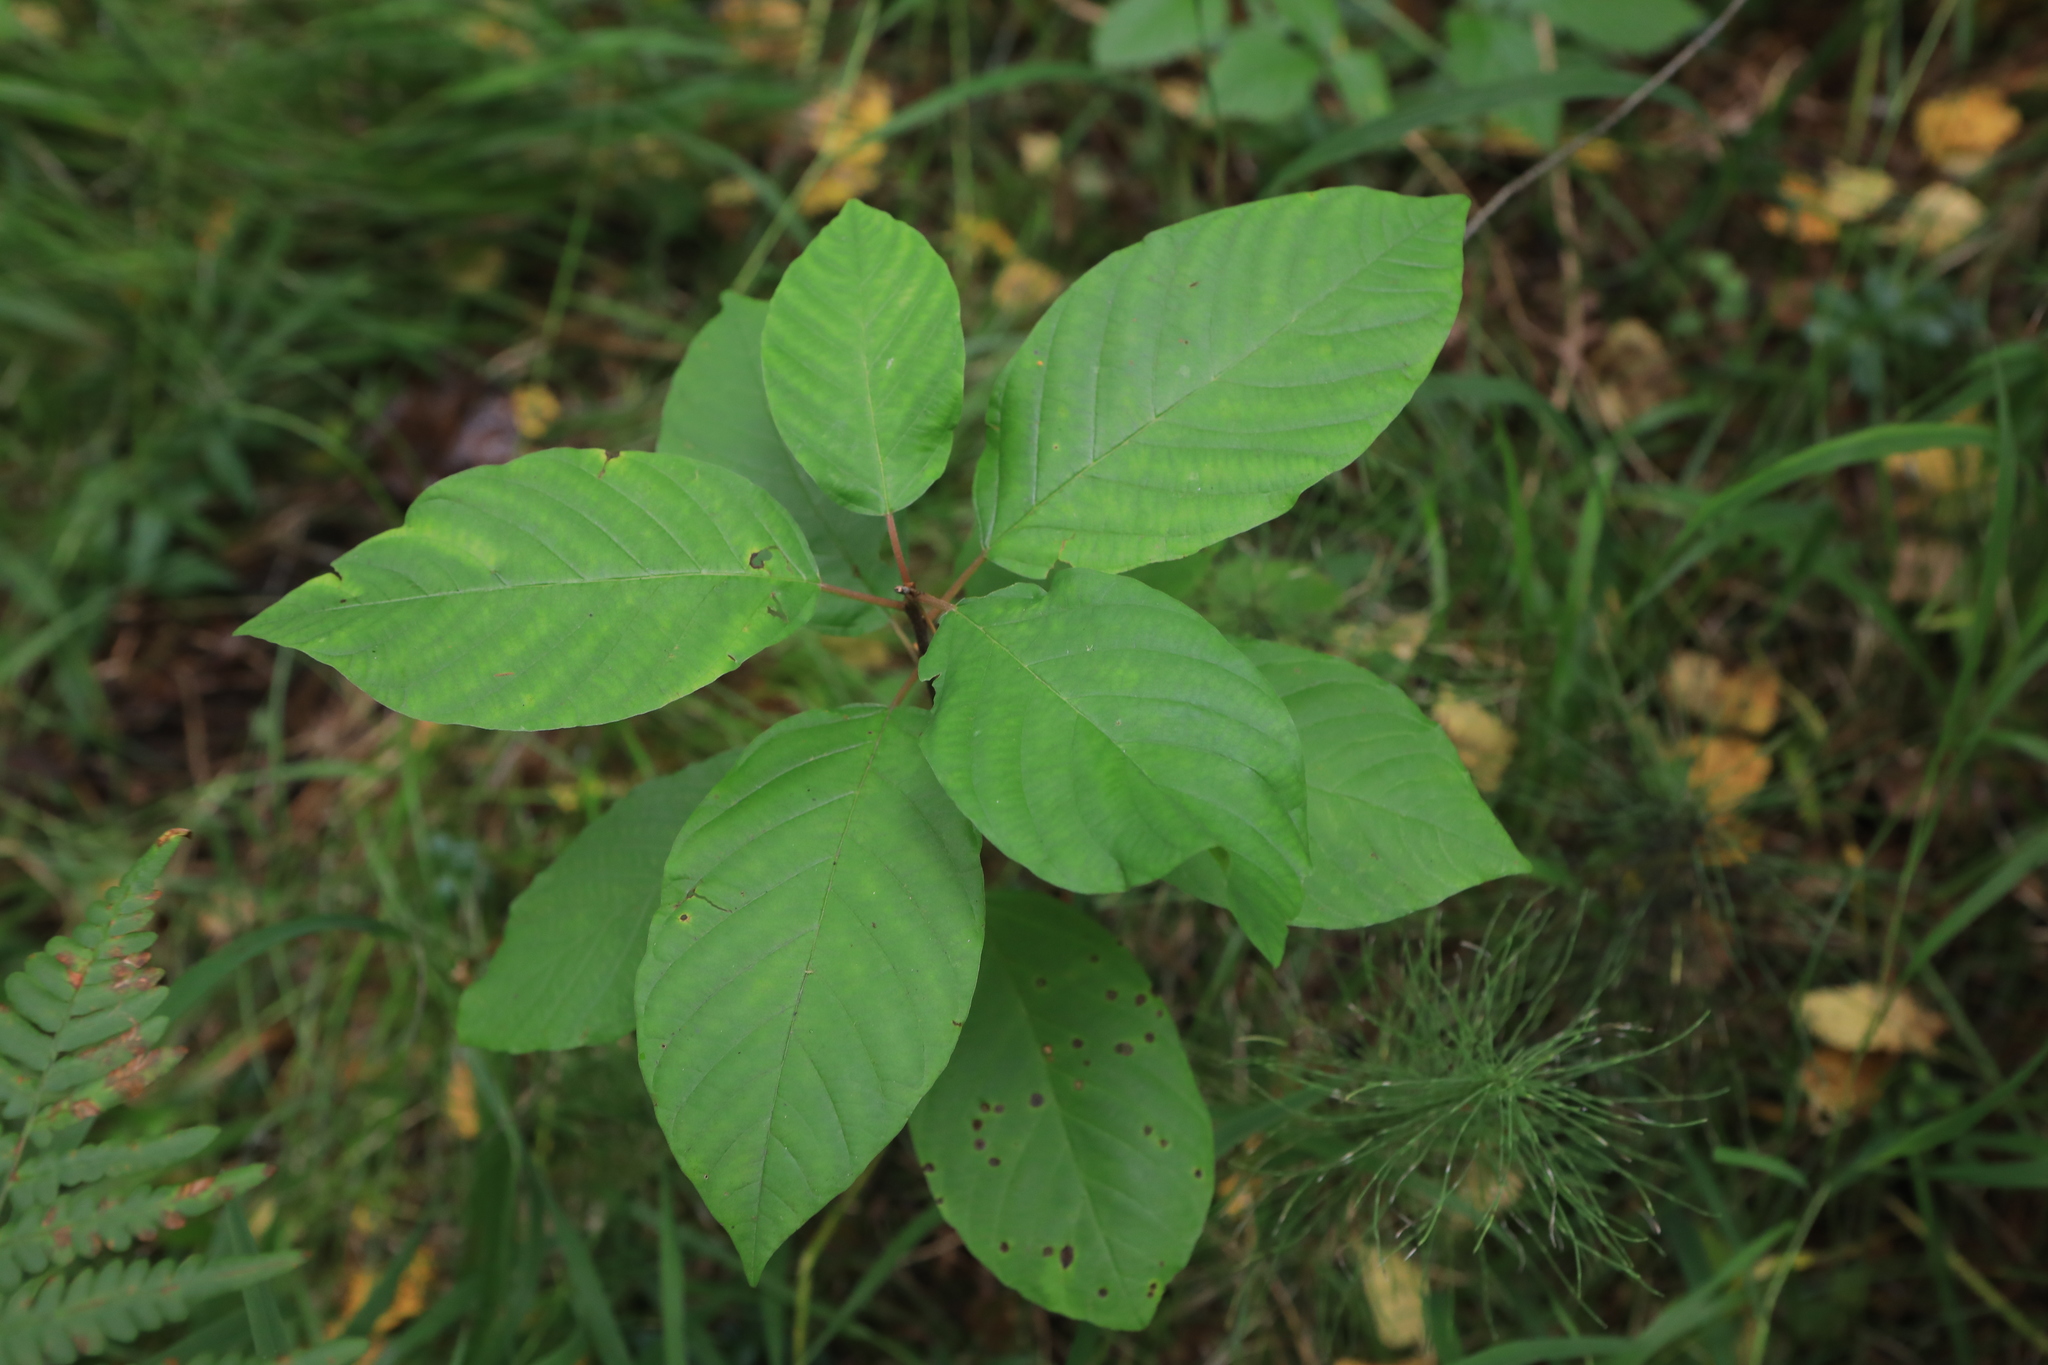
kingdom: Plantae
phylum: Tracheophyta
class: Magnoliopsida
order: Rosales
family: Rhamnaceae
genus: Frangula
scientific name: Frangula alnus
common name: Alder buckthorn
